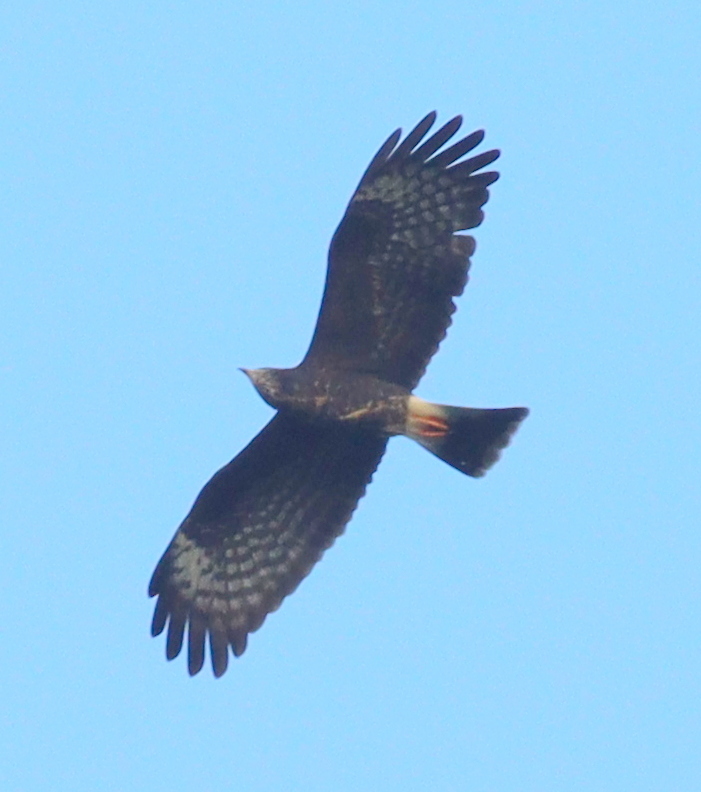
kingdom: Animalia
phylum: Chordata
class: Aves
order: Accipitriformes
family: Accipitridae
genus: Rostrhamus
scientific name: Rostrhamus sociabilis
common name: Snail kite
